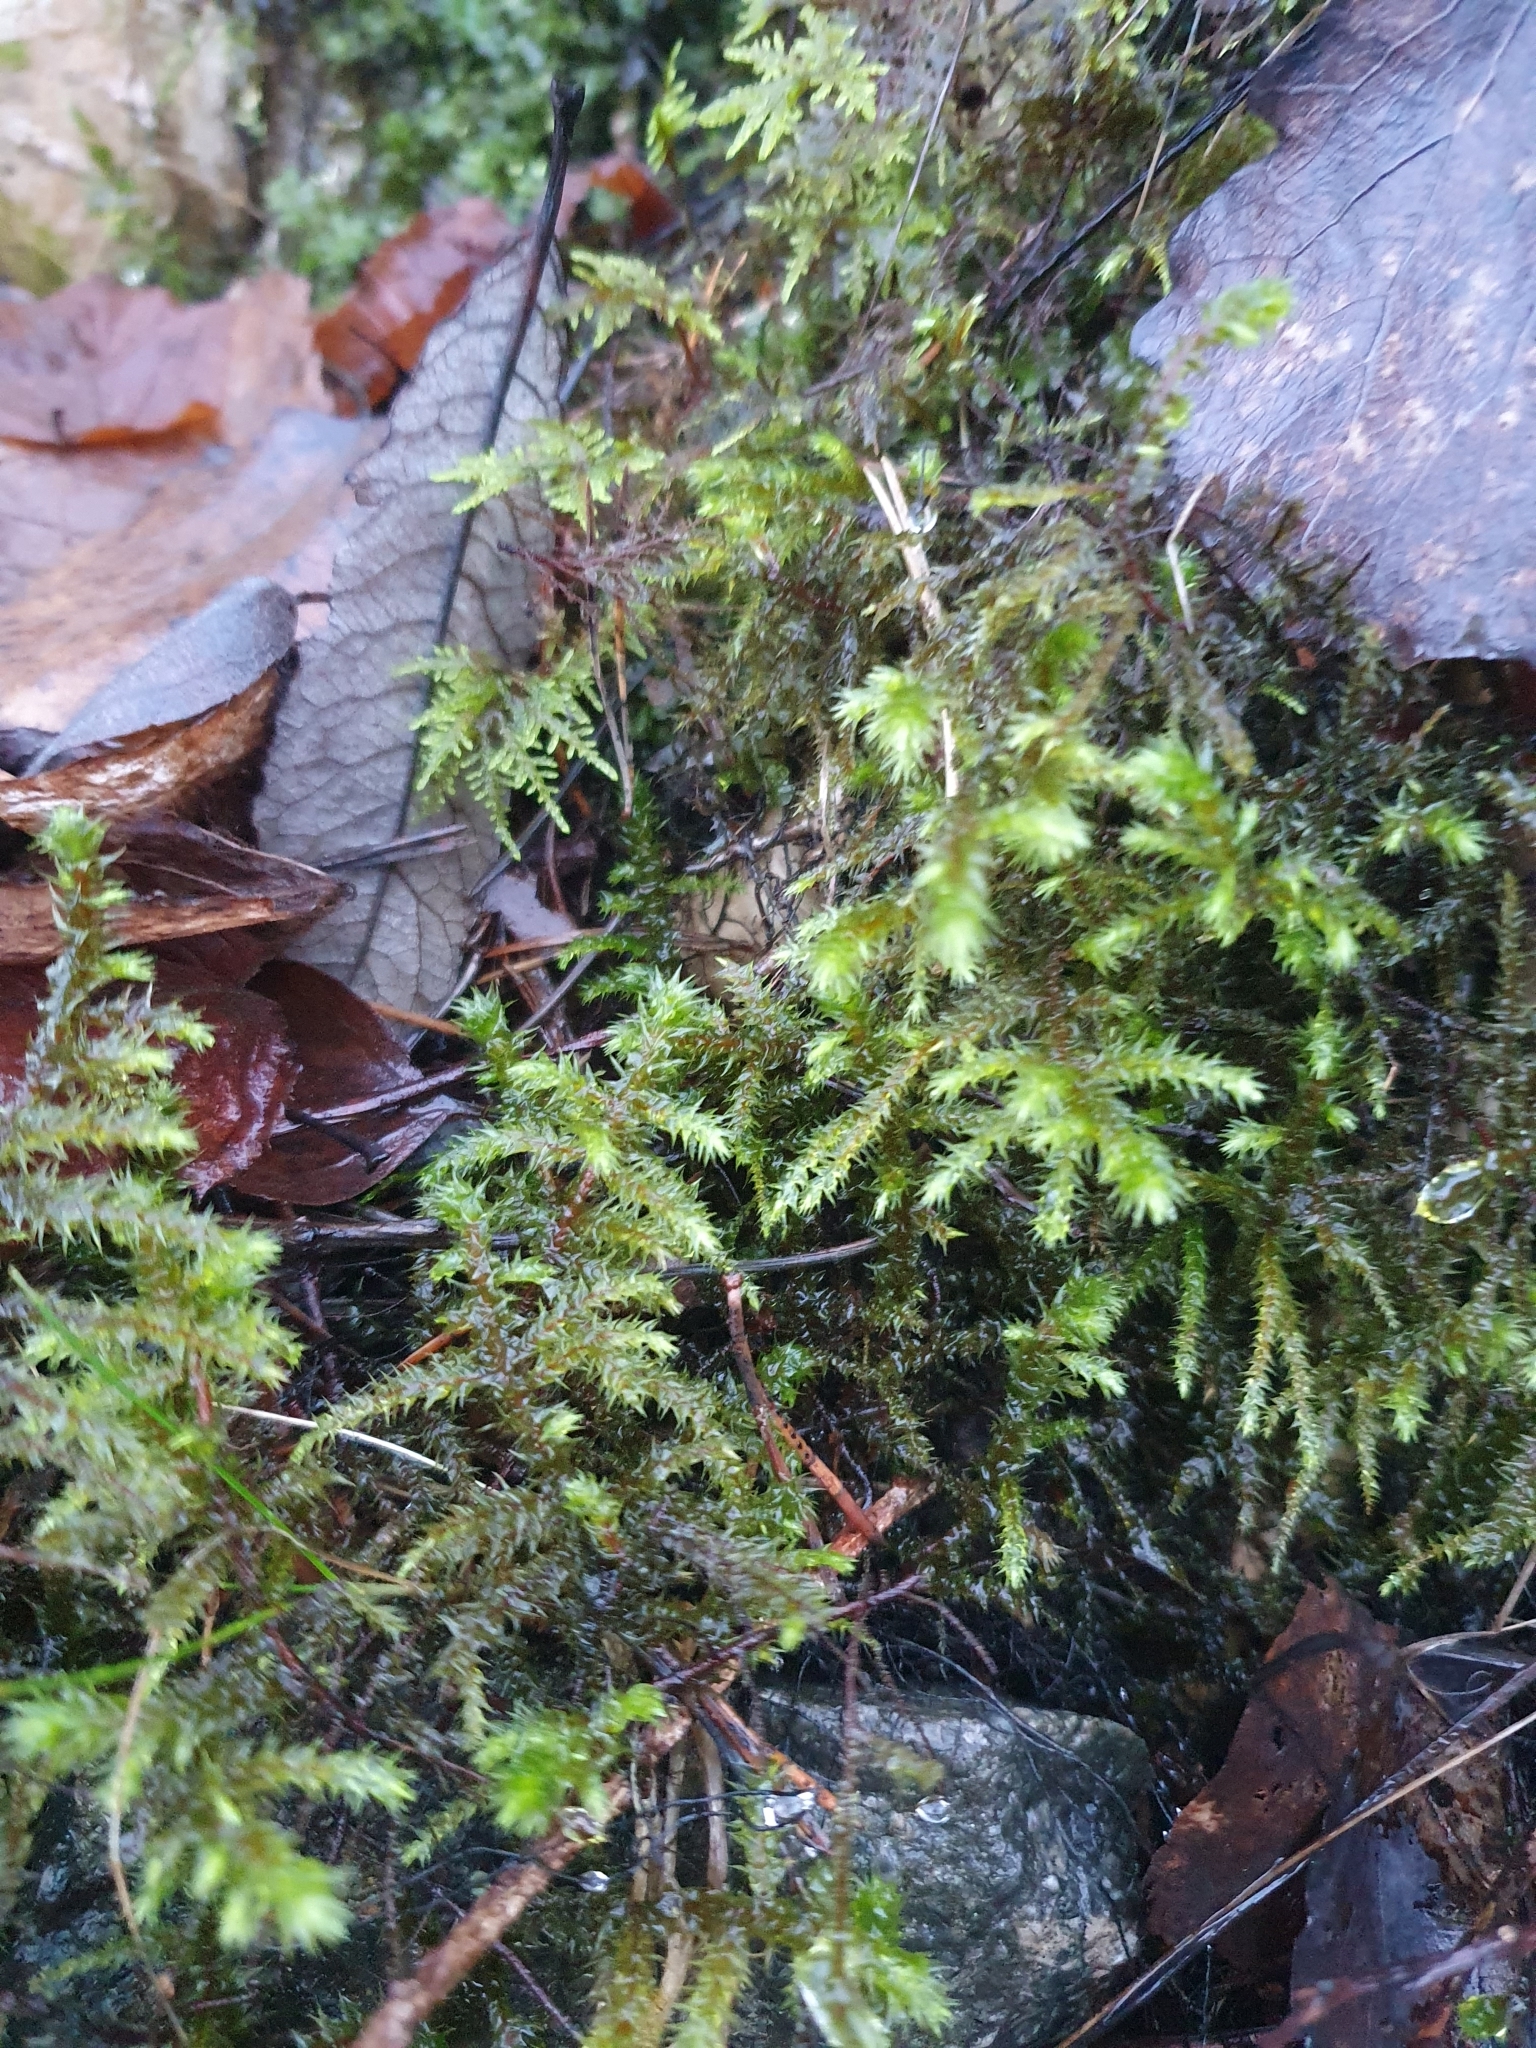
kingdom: Plantae
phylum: Bryophyta
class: Bryopsida
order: Hypnales
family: Hylocomiaceae
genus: Hylocomiadelphus
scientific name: Hylocomiadelphus triquetrus
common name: Rough goose neck moss
